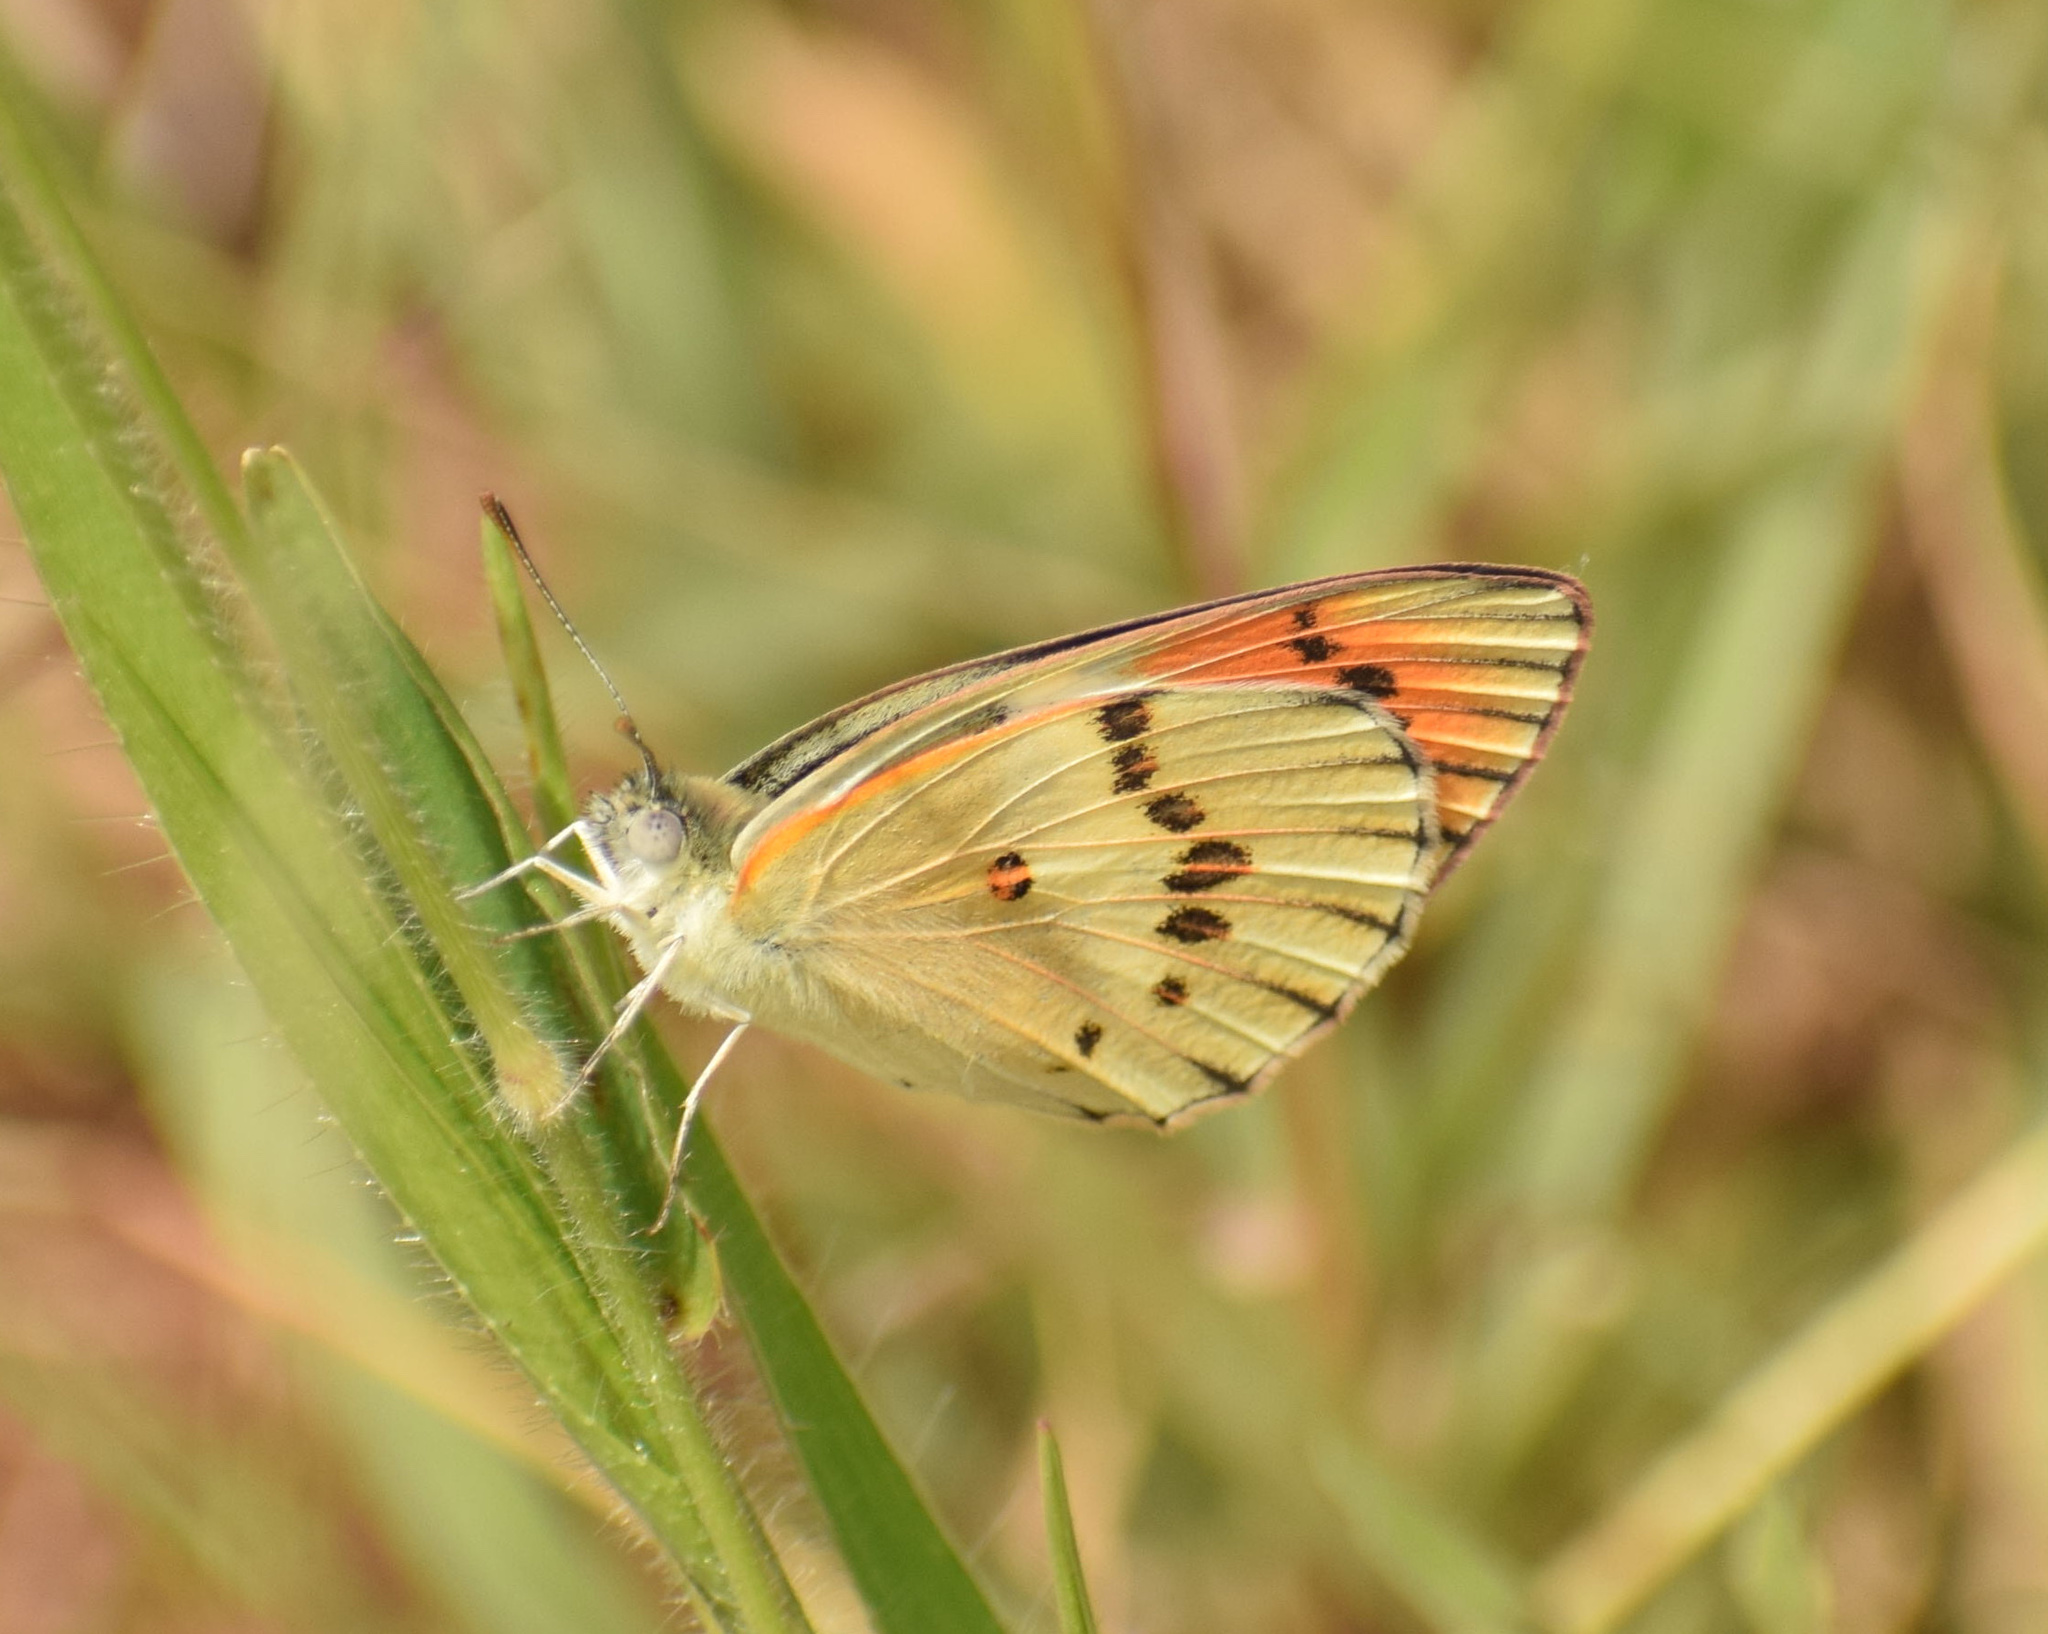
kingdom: Animalia
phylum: Arthropoda
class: Insecta
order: Lepidoptera
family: Pieridae
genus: Colotis
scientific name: Colotis annae
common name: Scarlet tip
